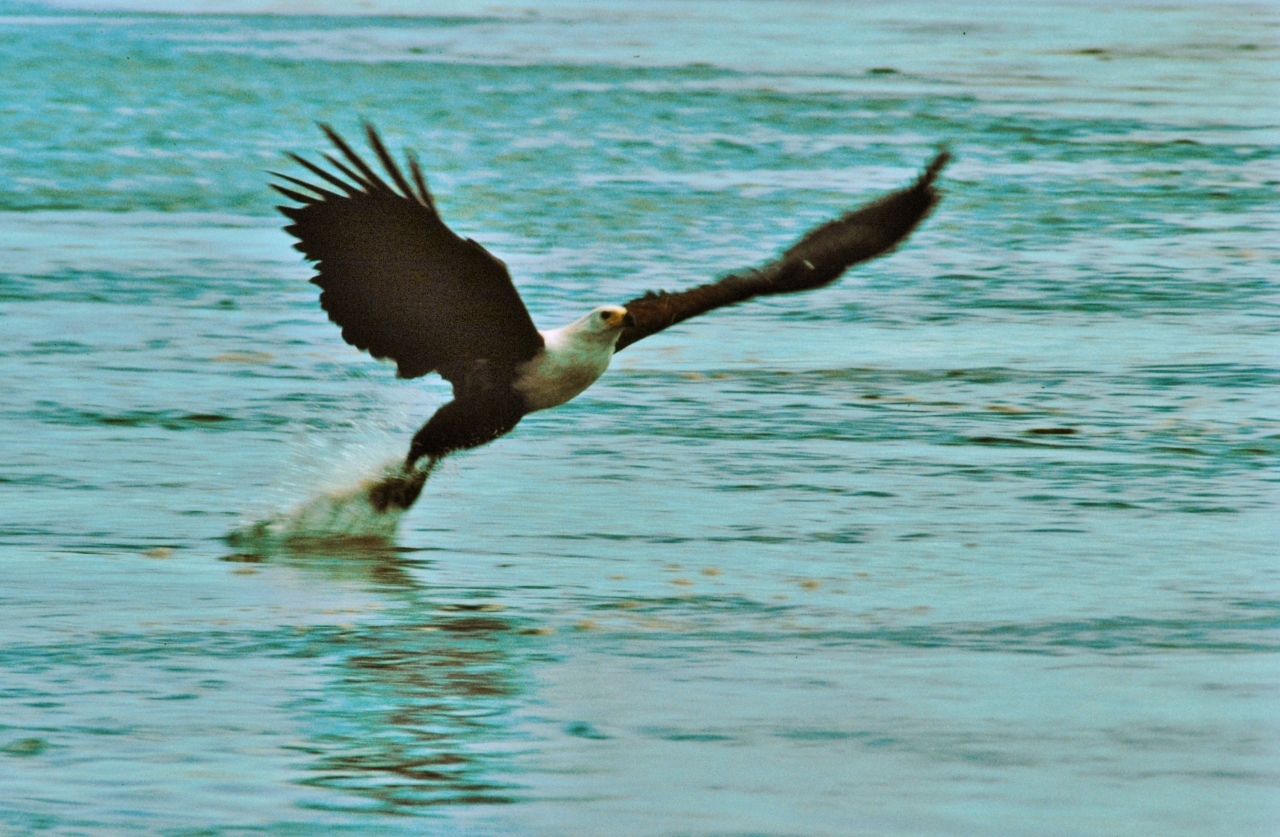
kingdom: Animalia
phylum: Chordata
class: Aves
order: Accipitriformes
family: Accipitridae
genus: Haliaeetus
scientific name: Haliaeetus vocifer
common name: African fish eagle
